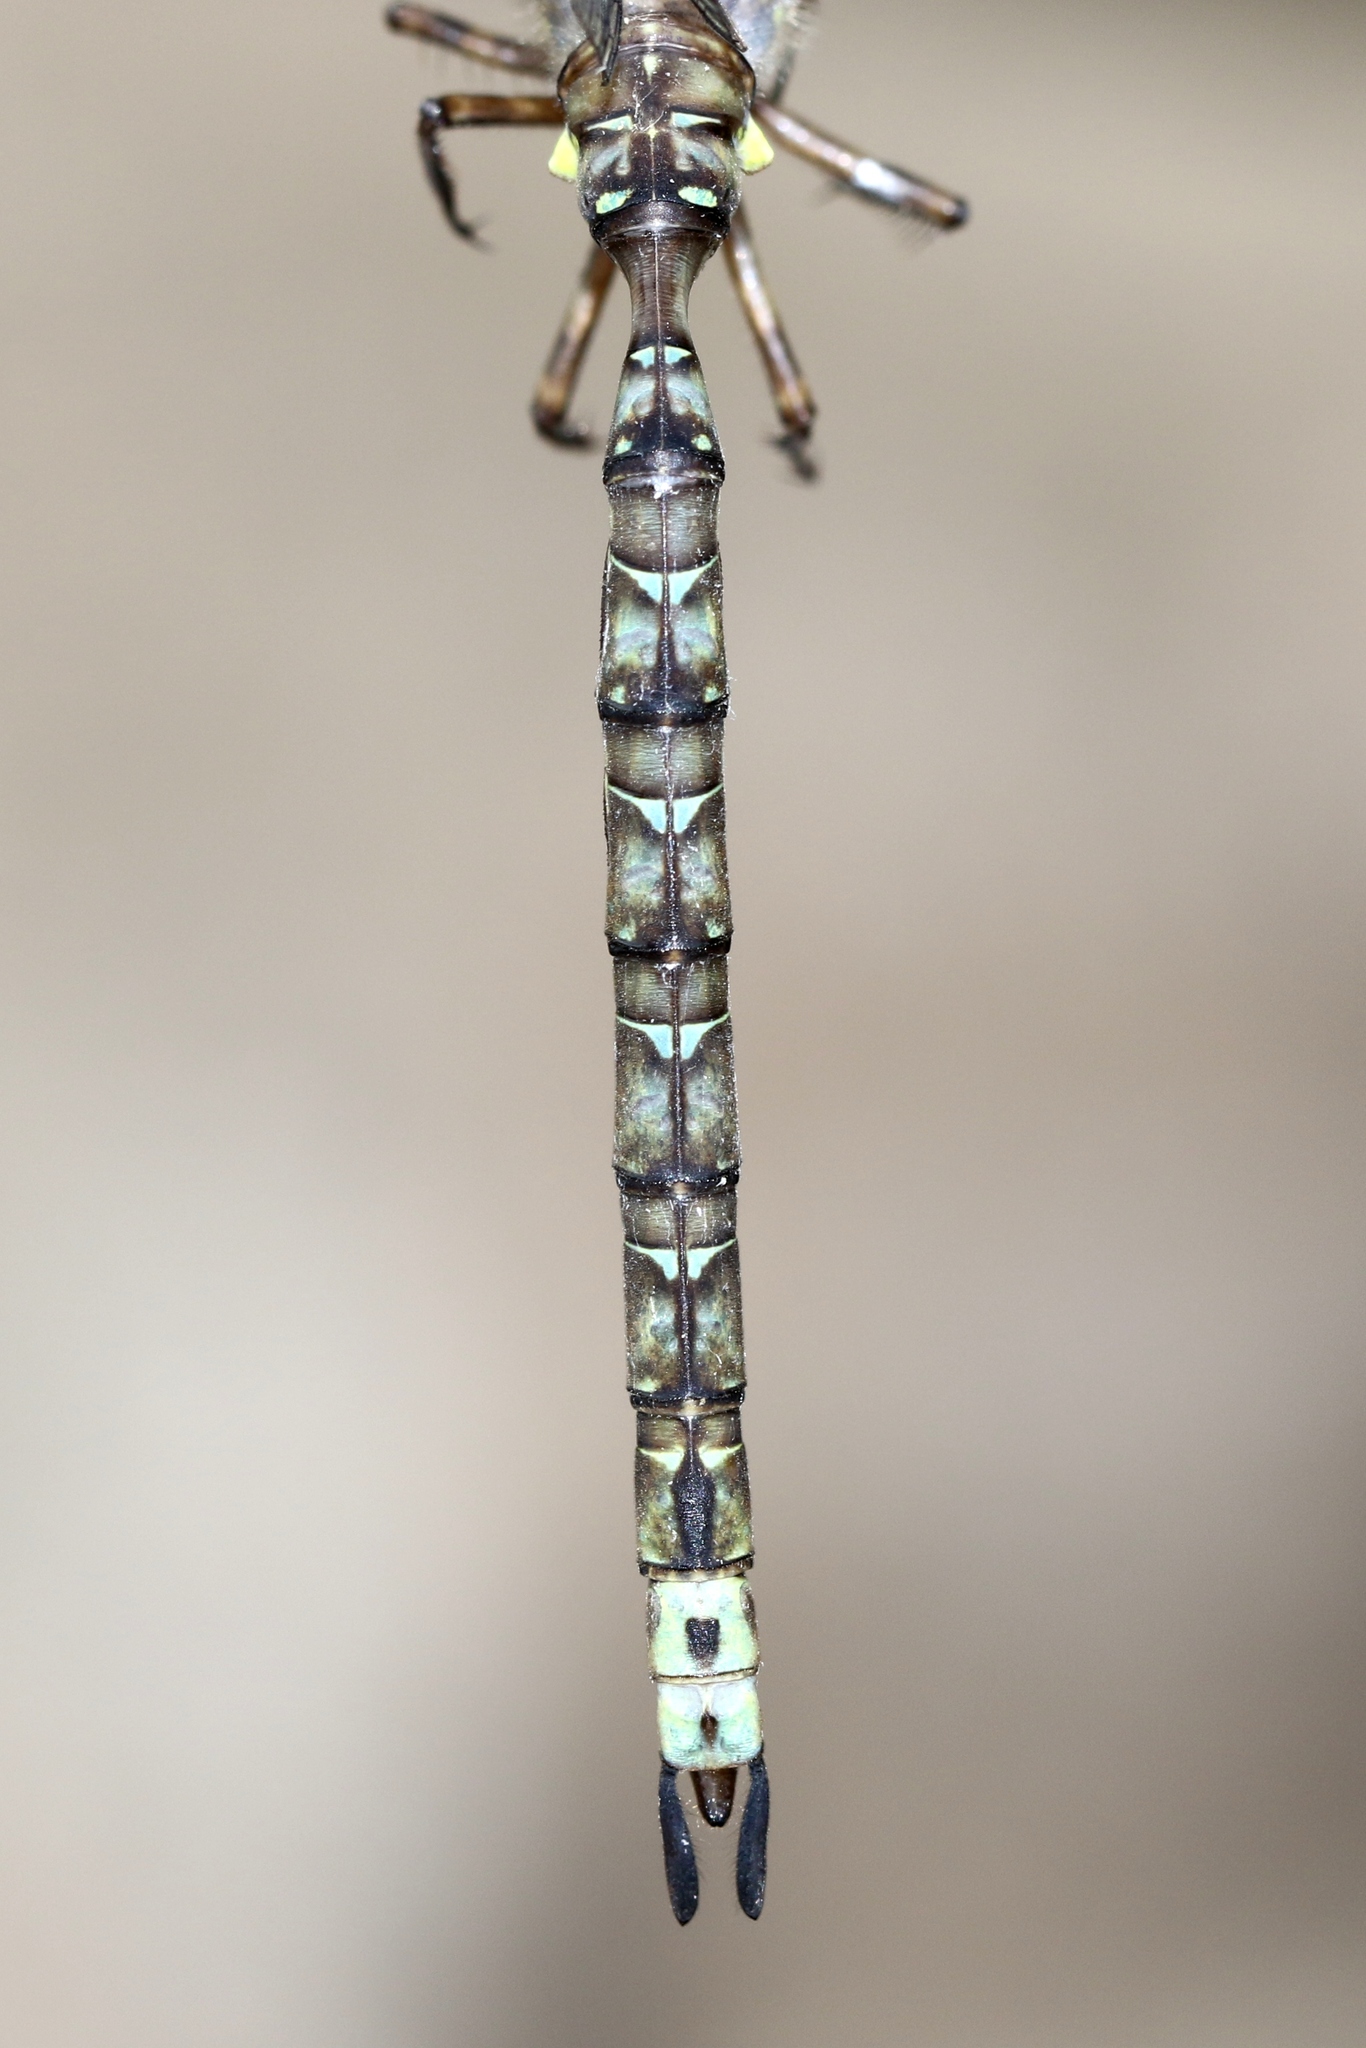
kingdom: Animalia
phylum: Arthropoda
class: Insecta
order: Odonata
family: Aeshnidae
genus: Boyeria
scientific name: Boyeria grafiana
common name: Ocellated darner
